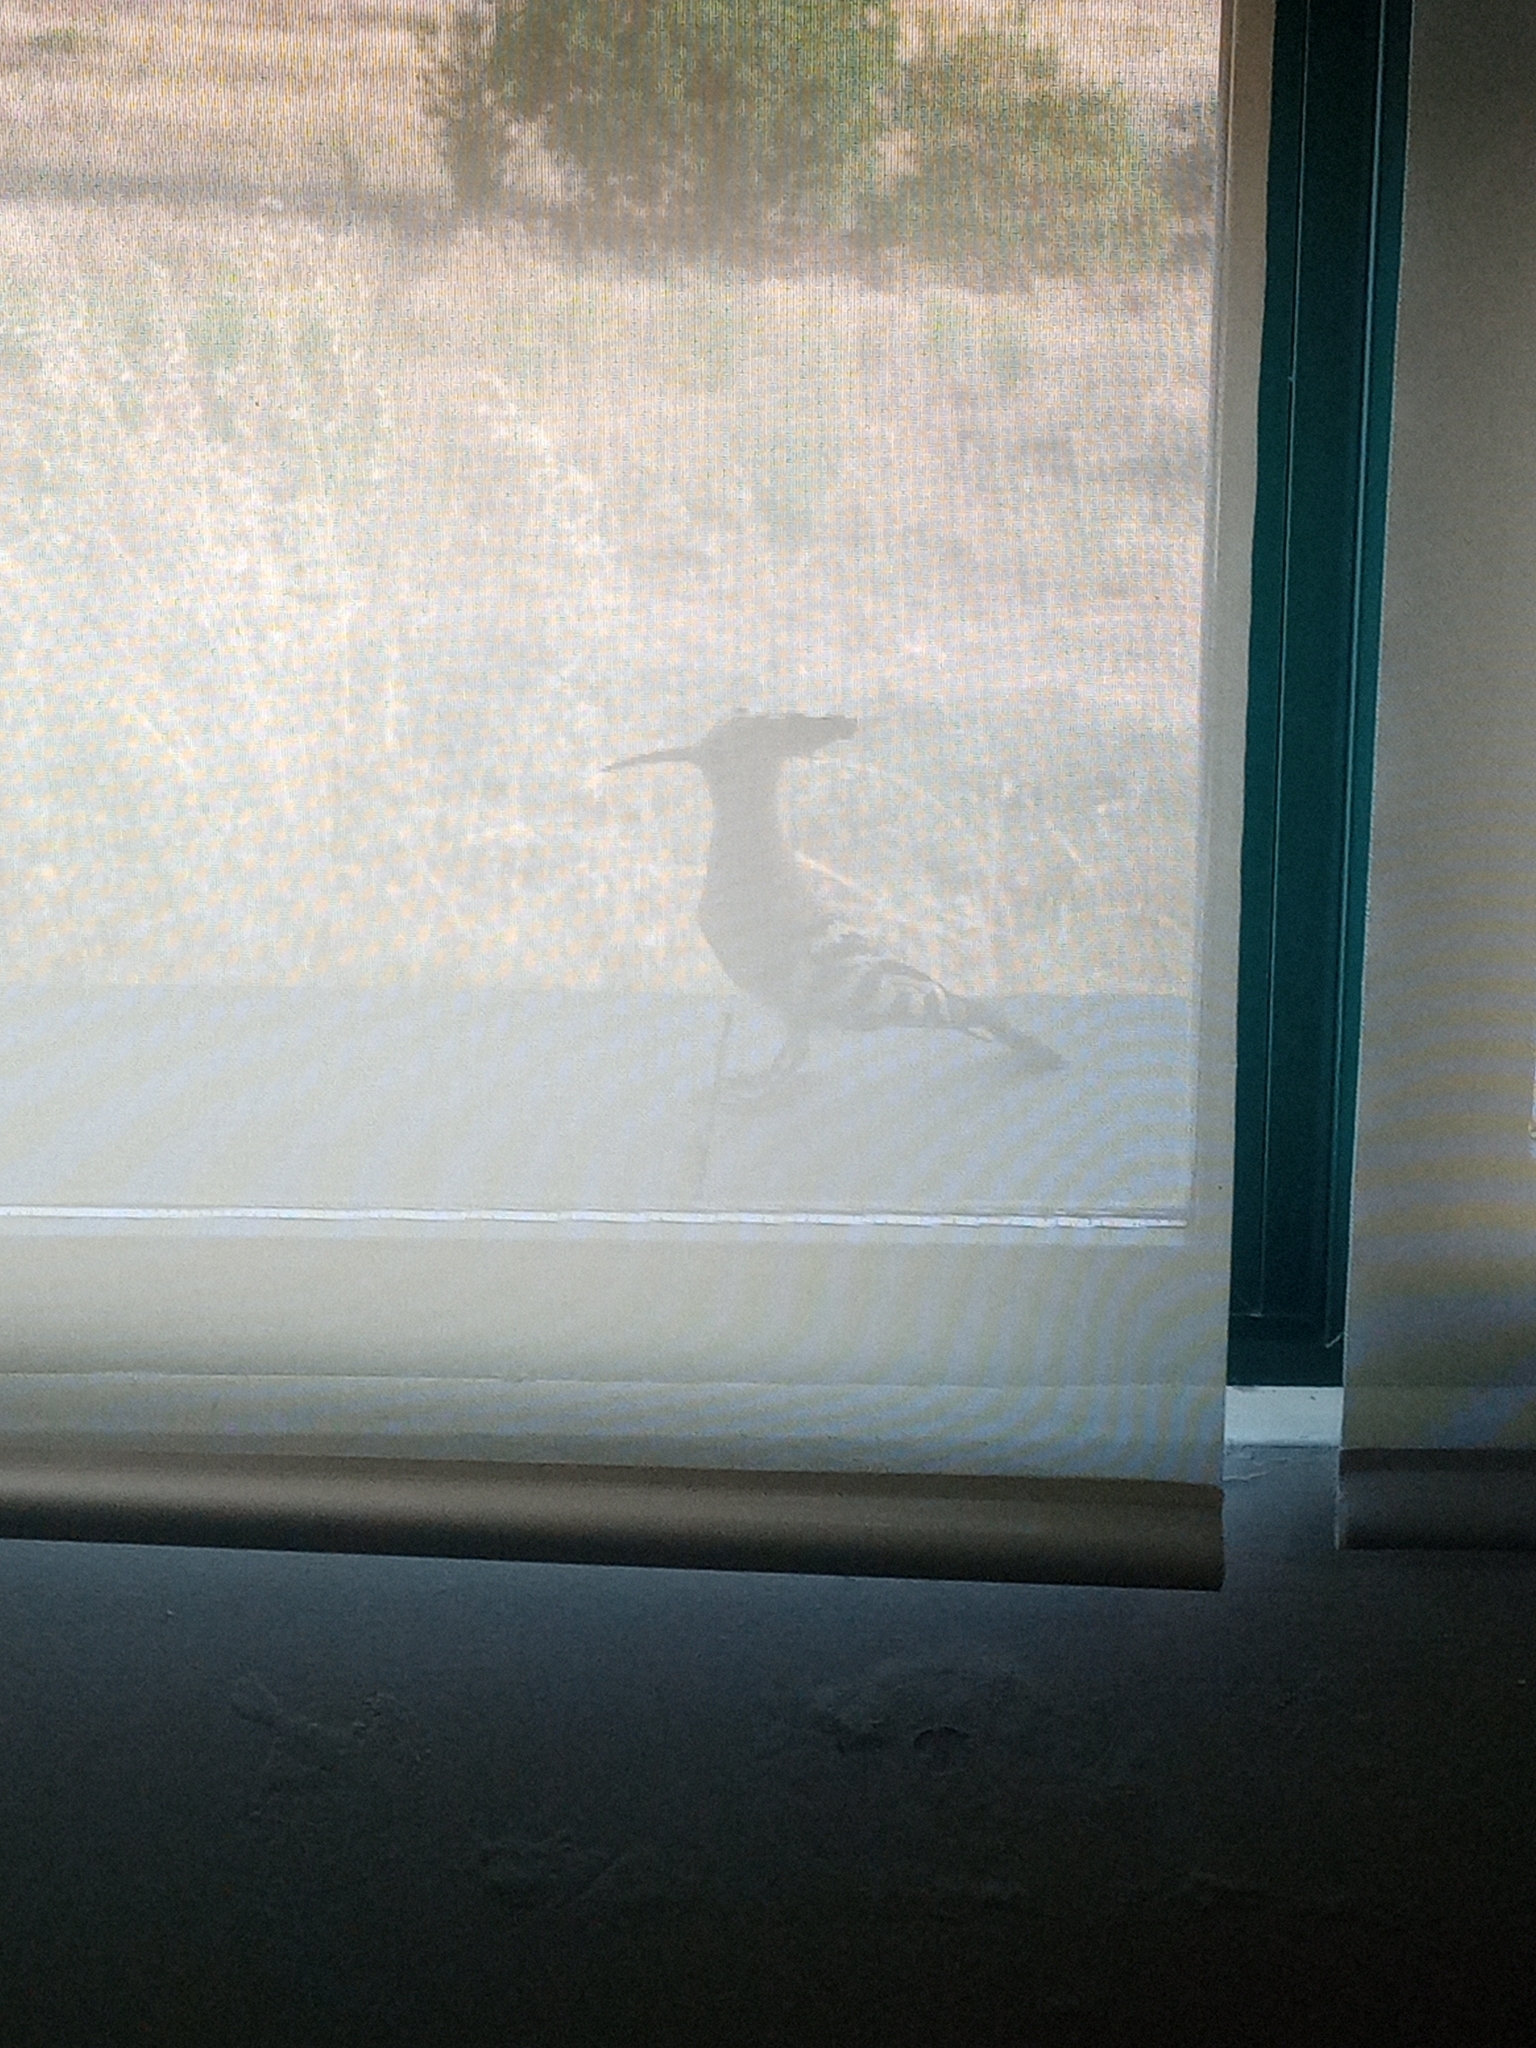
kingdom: Animalia
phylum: Chordata
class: Aves
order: Bucerotiformes
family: Upupidae
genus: Upupa
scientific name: Upupa epops
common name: Eurasian hoopoe
